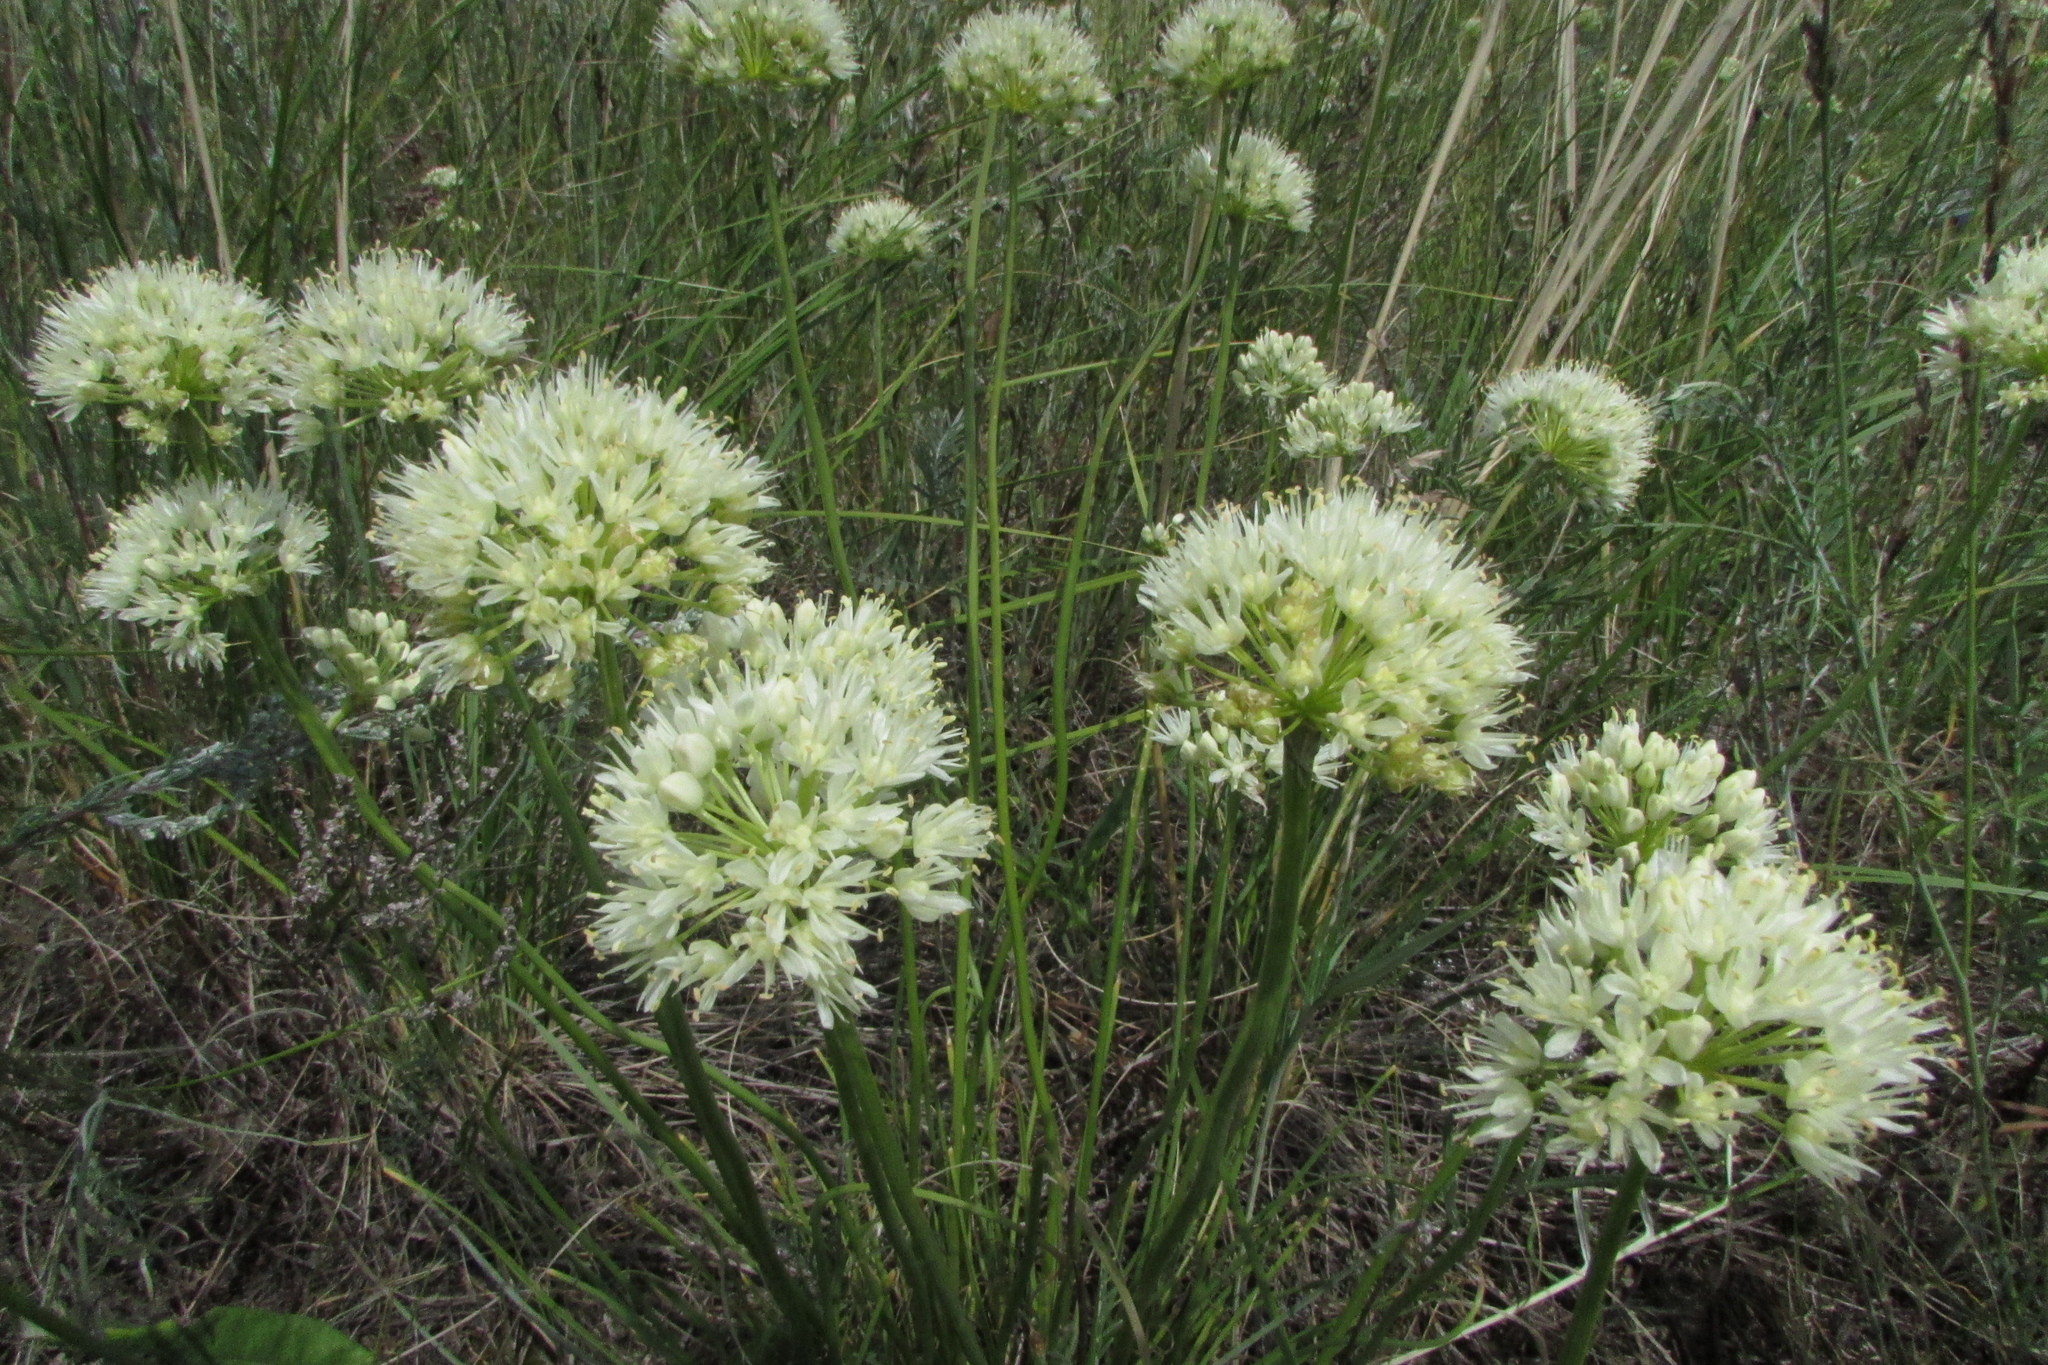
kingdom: Plantae
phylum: Tracheophyta
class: Liliopsida
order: Asparagales
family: Amaryllidaceae
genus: Allium
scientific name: Allium flavescens
